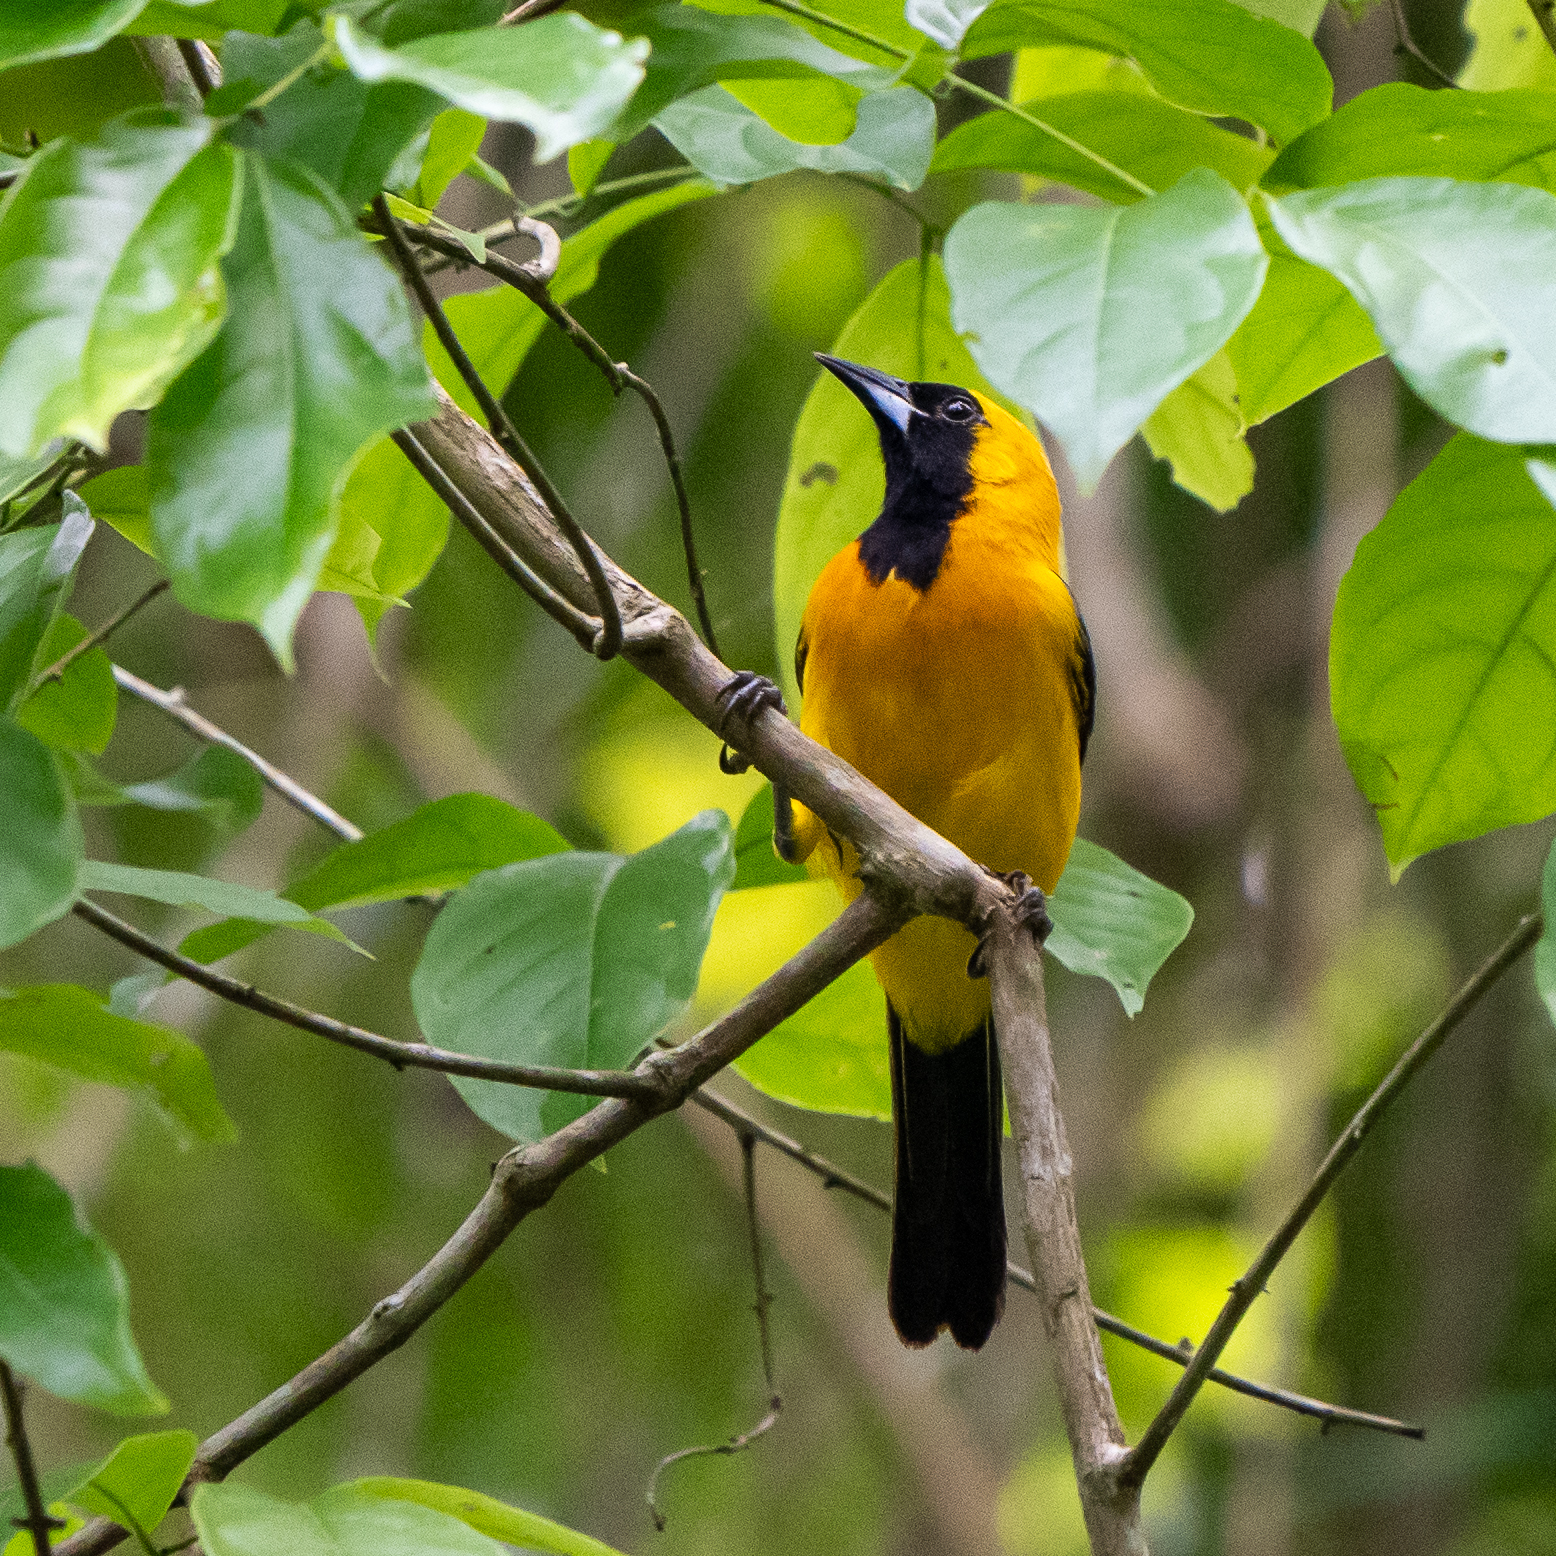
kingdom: Animalia
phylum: Chordata
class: Aves
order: Passeriformes
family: Icteridae
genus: Icterus
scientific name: Icterus chrysater
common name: Yellow-backed oriole
